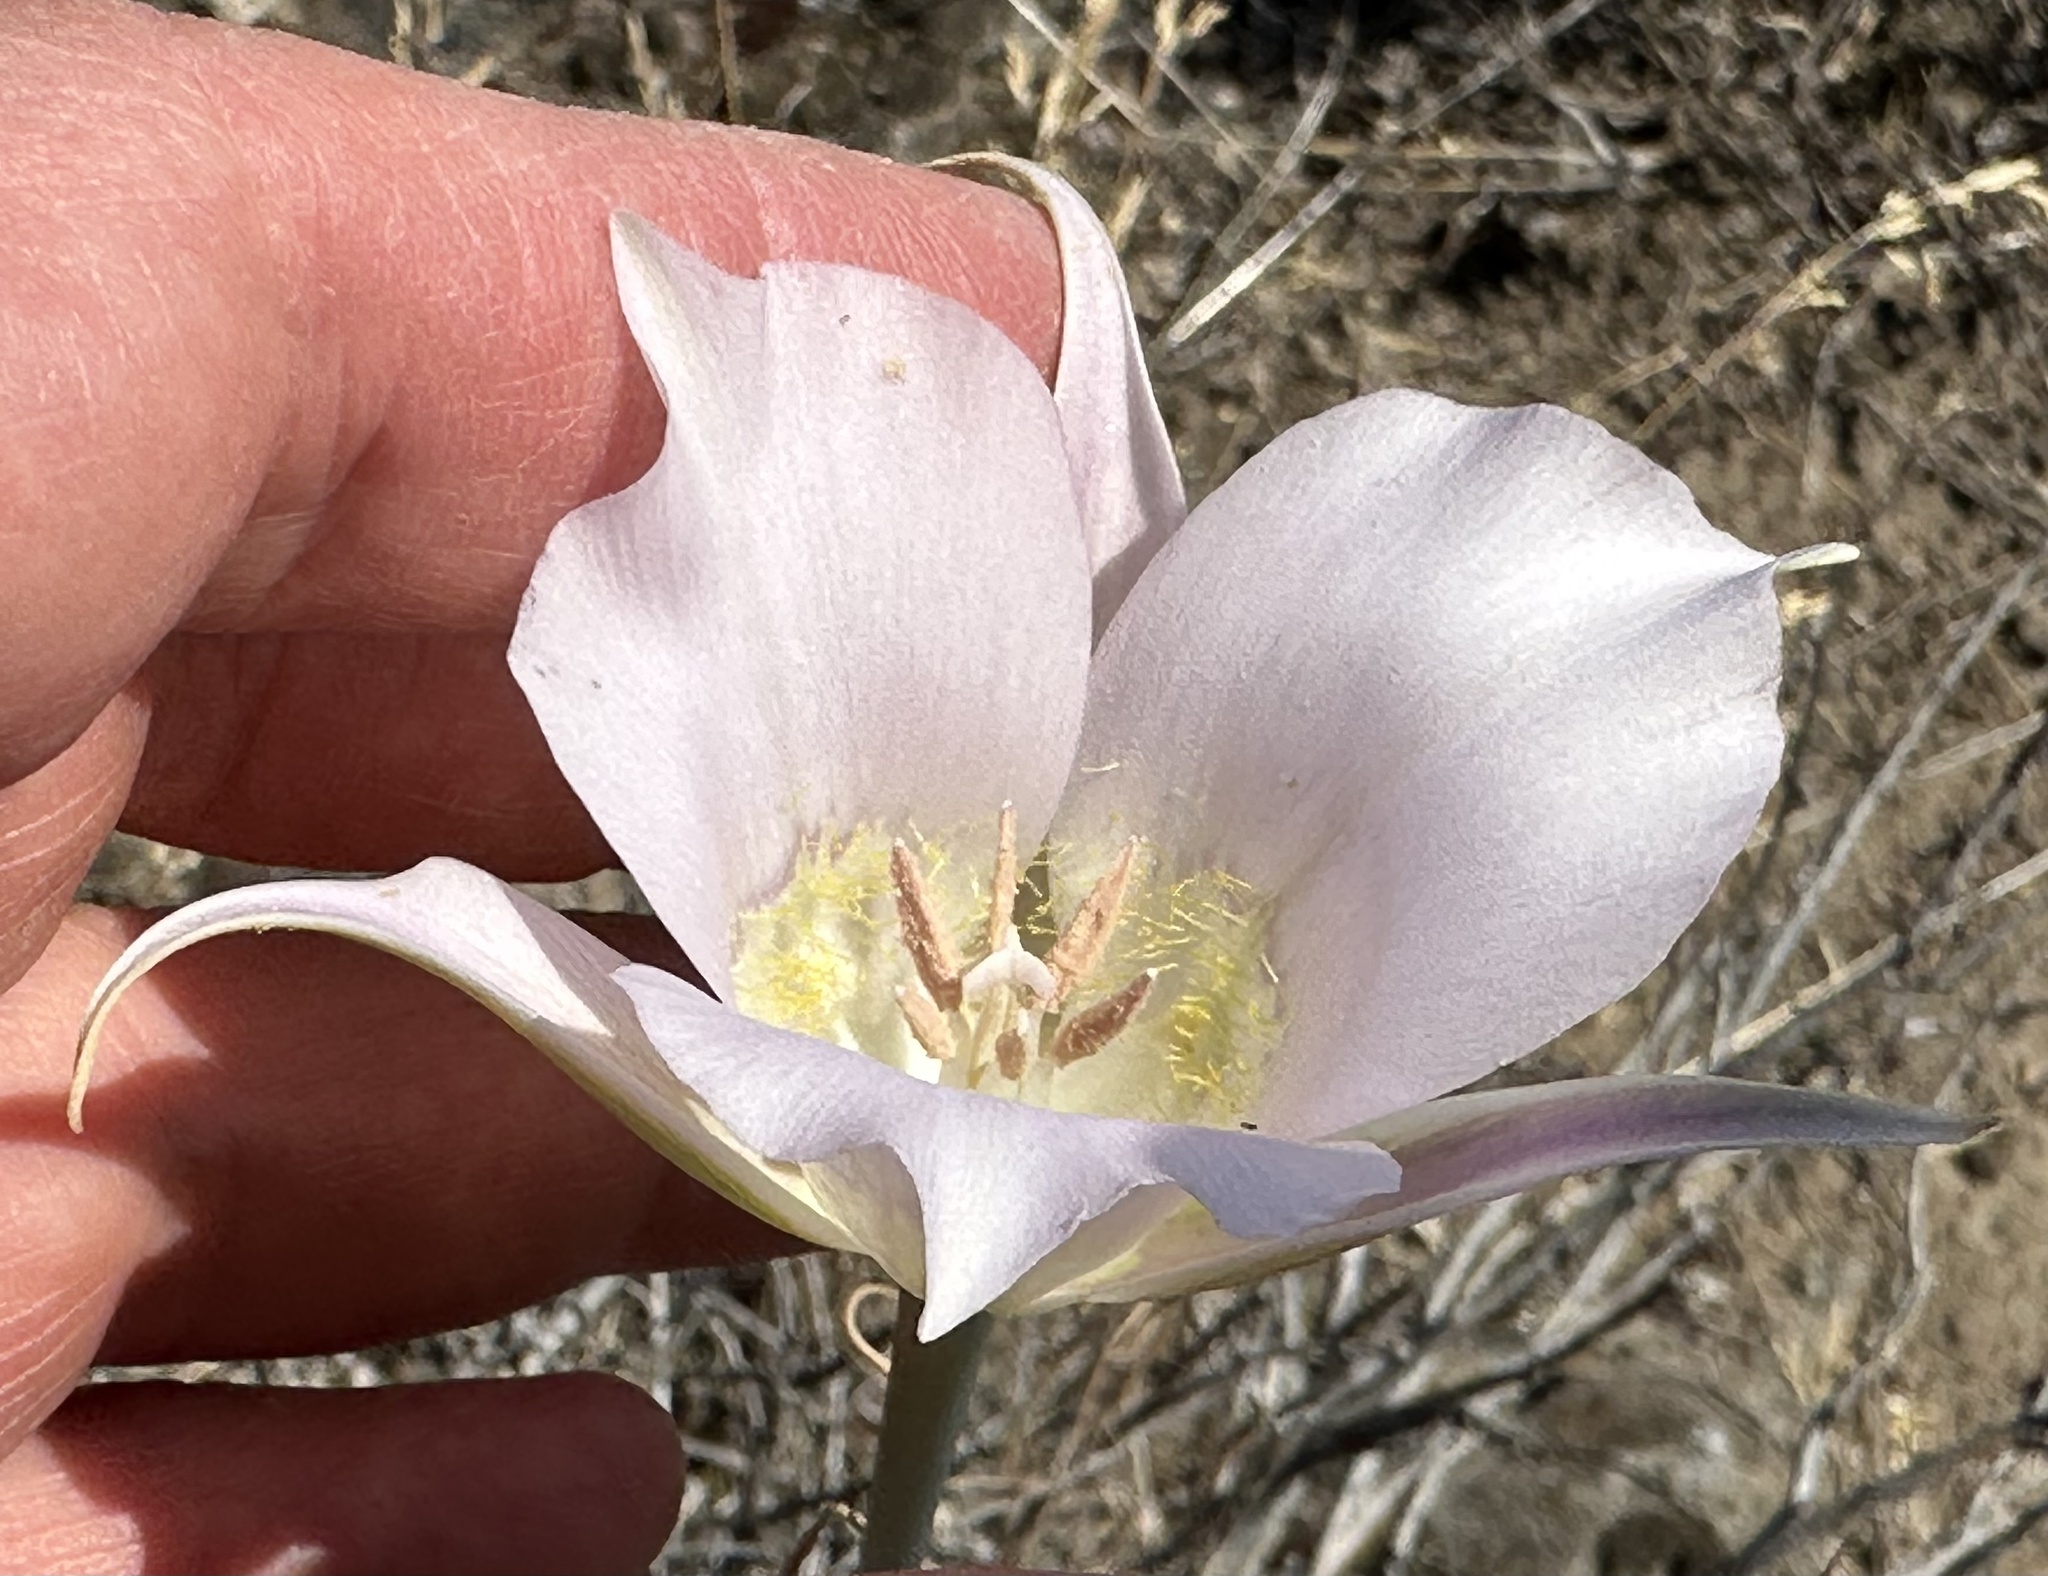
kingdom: Plantae
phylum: Tracheophyta
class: Liliopsida
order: Liliales
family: Liliaceae
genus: Calochortus
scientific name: Calochortus macrocarpus
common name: Green-band mariposa lily
